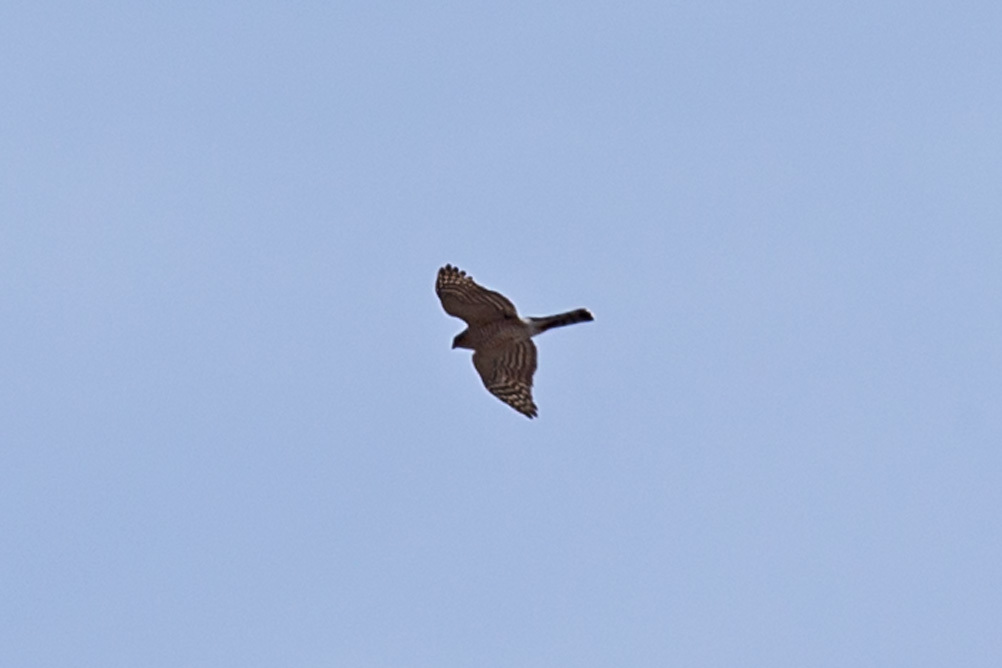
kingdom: Animalia
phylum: Chordata
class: Aves
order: Accipitriformes
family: Accipitridae
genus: Accipiter
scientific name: Accipiter striatus
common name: Sharp-shinned hawk
